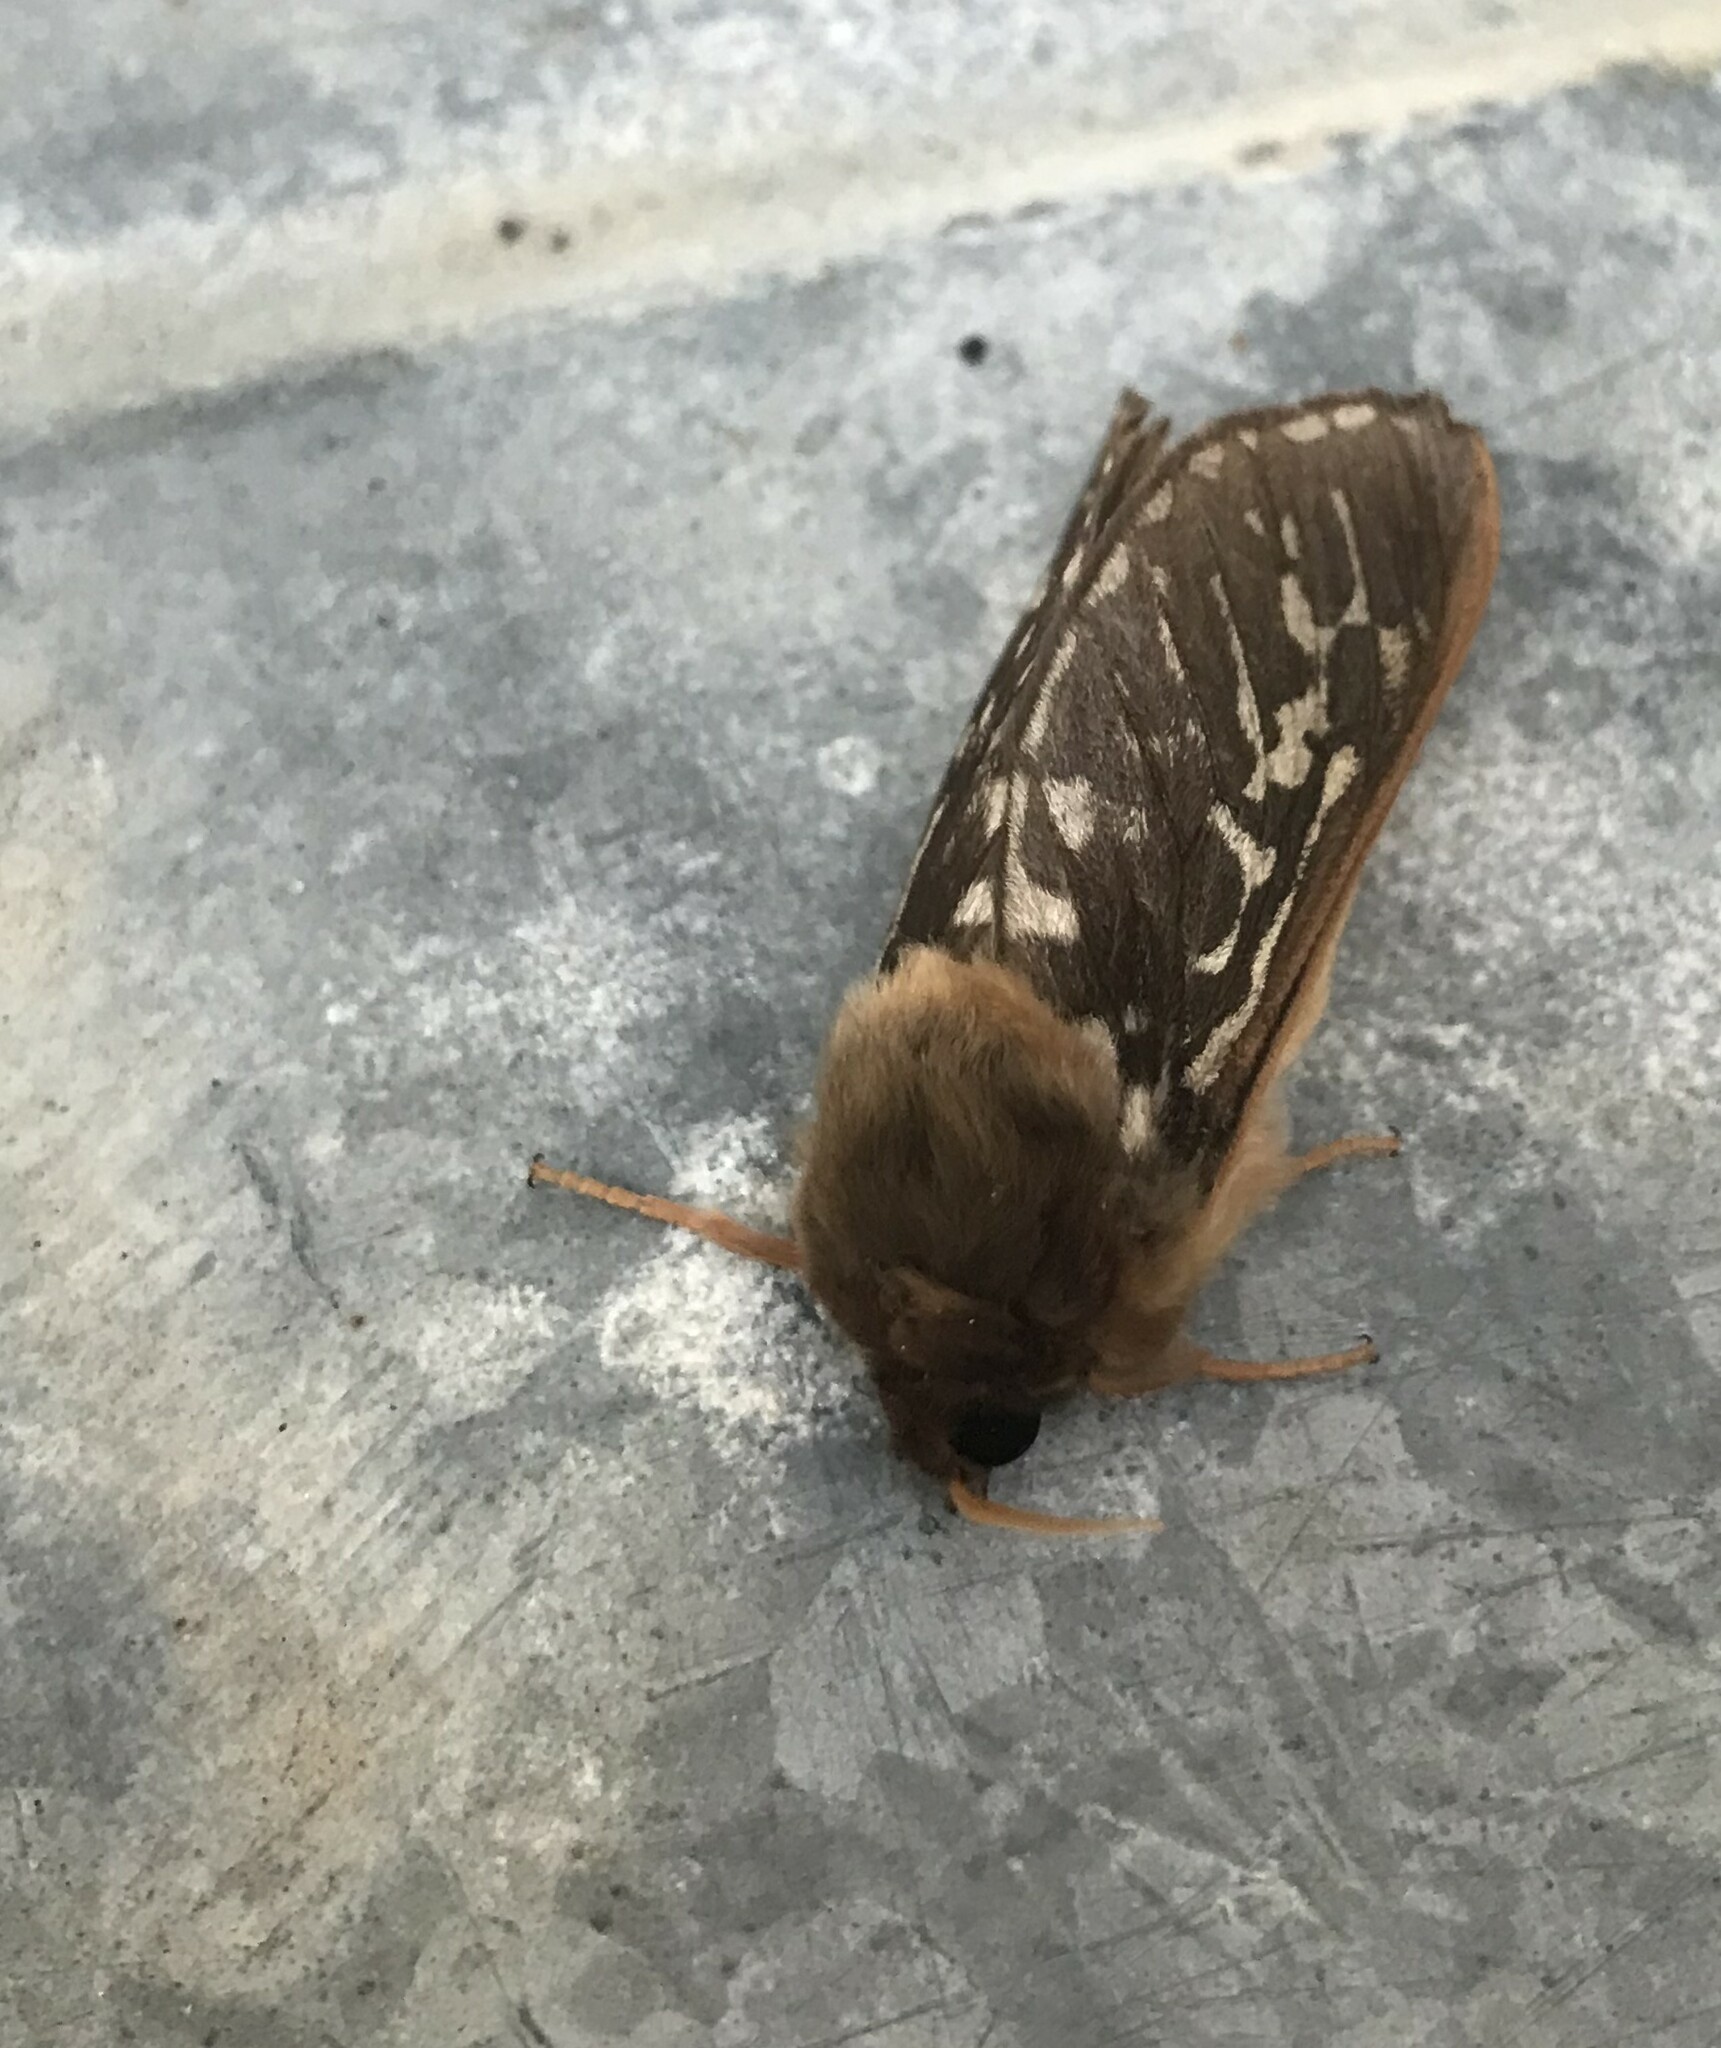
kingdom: Animalia
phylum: Arthropoda
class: Insecta
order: Lepidoptera
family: Hepialidae
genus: Parapielus
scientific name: Parapielus luteicornis
